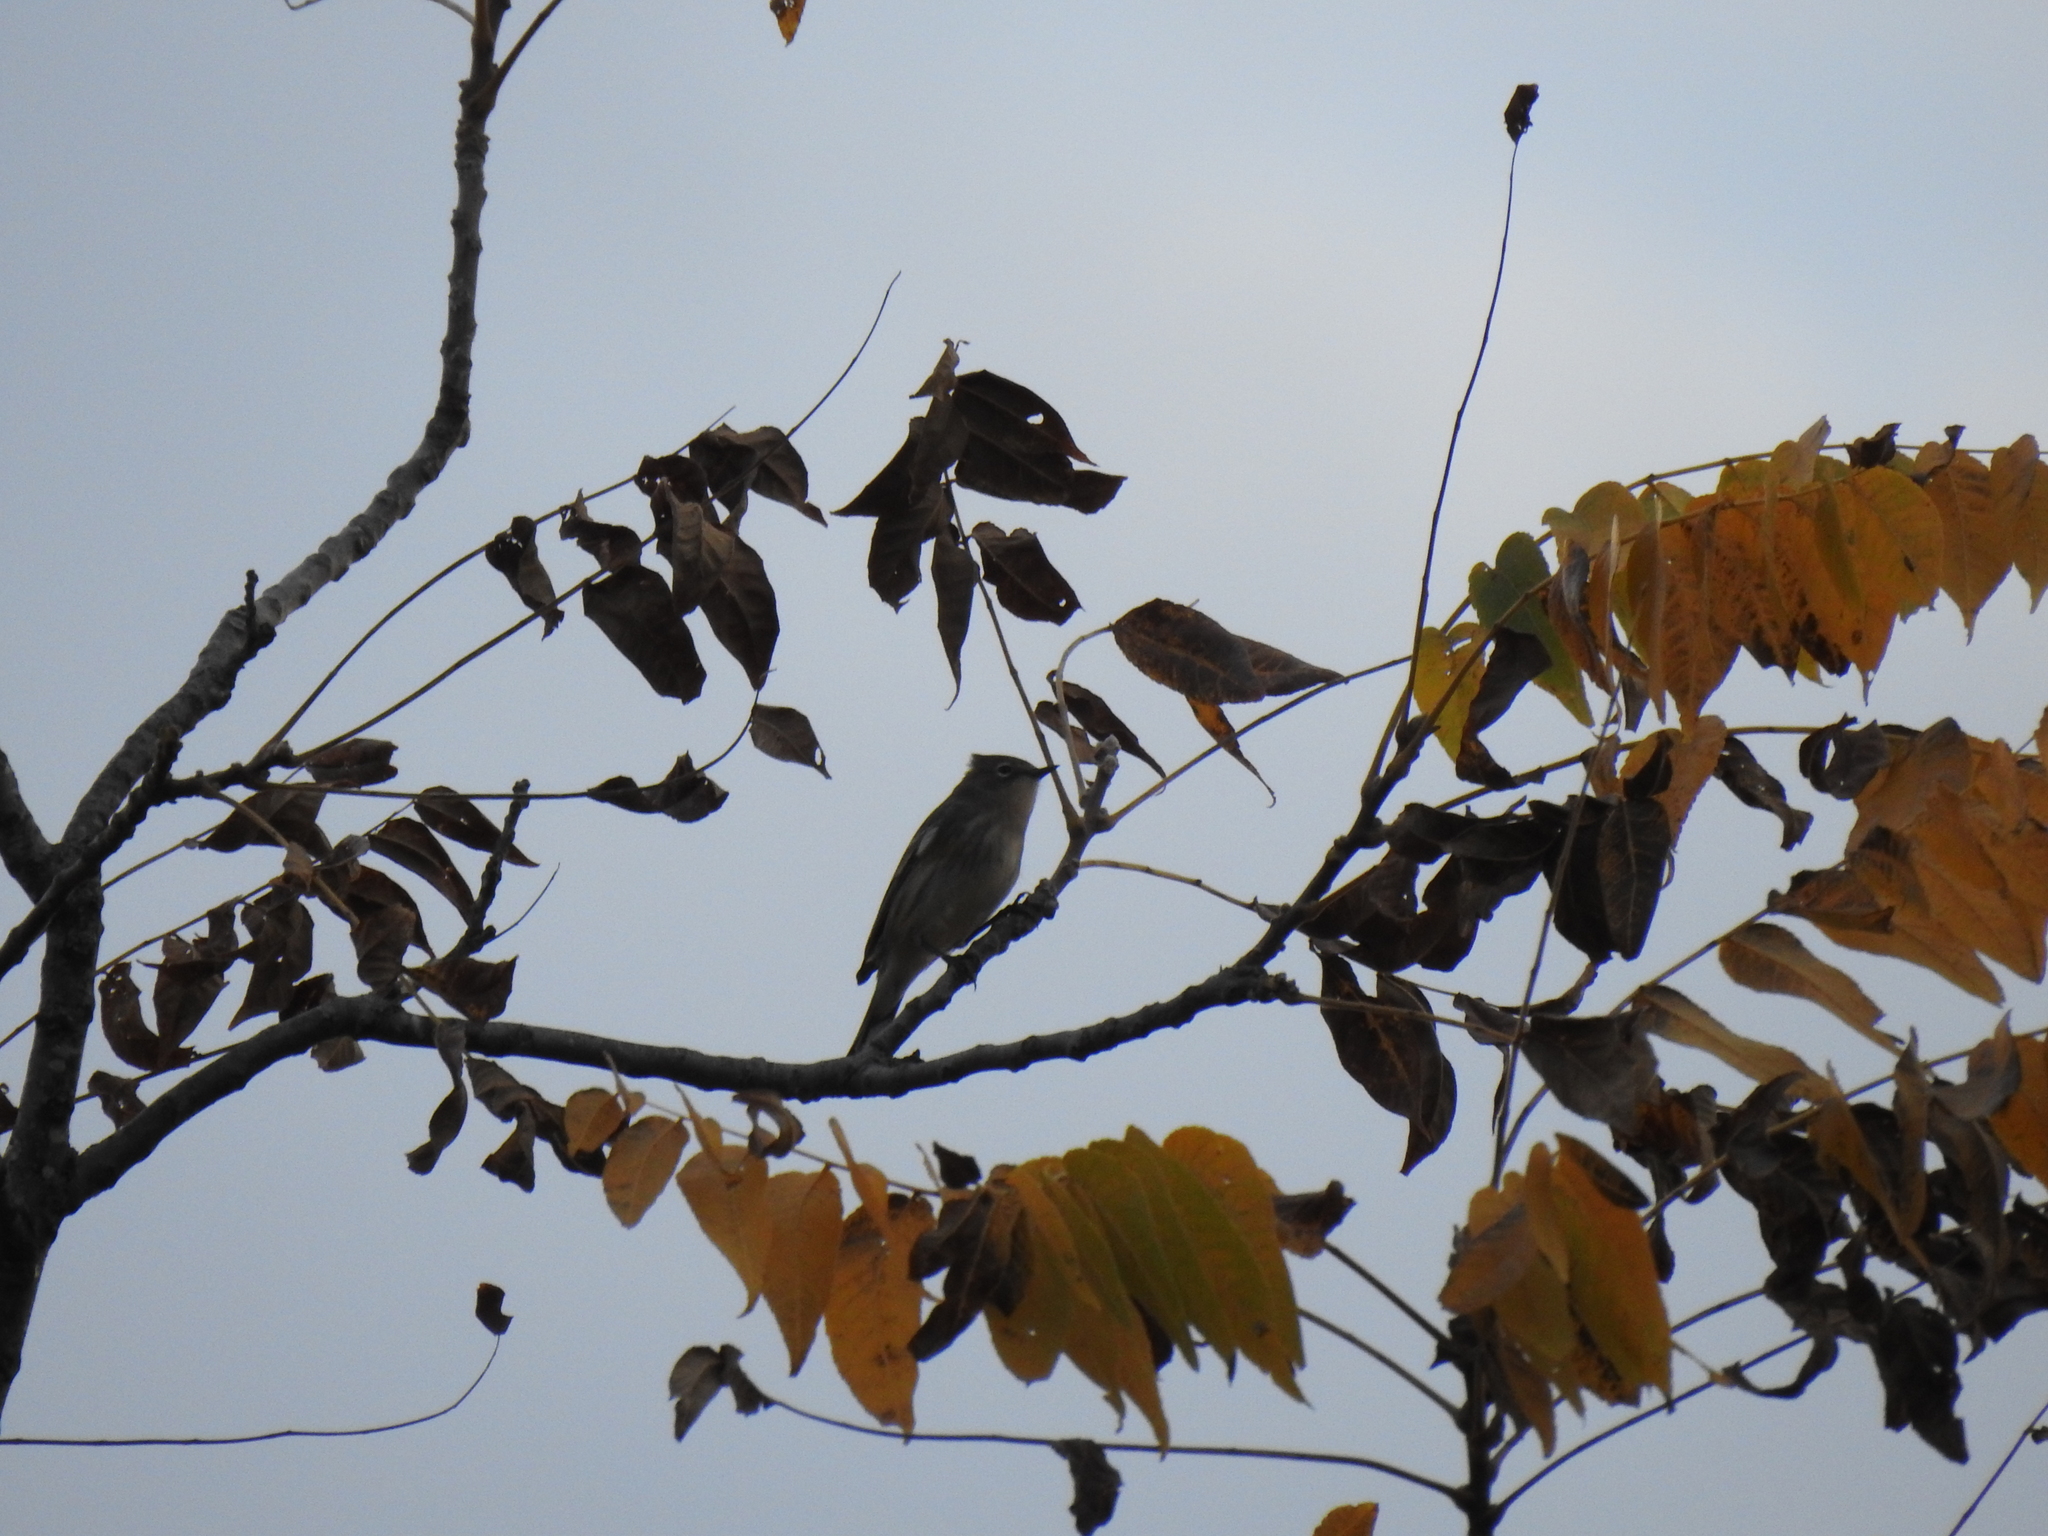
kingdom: Animalia
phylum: Chordata
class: Aves
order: Passeriformes
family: Parulidae
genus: Setophaga
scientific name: Setophaga coronata
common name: Myrtle warbler
